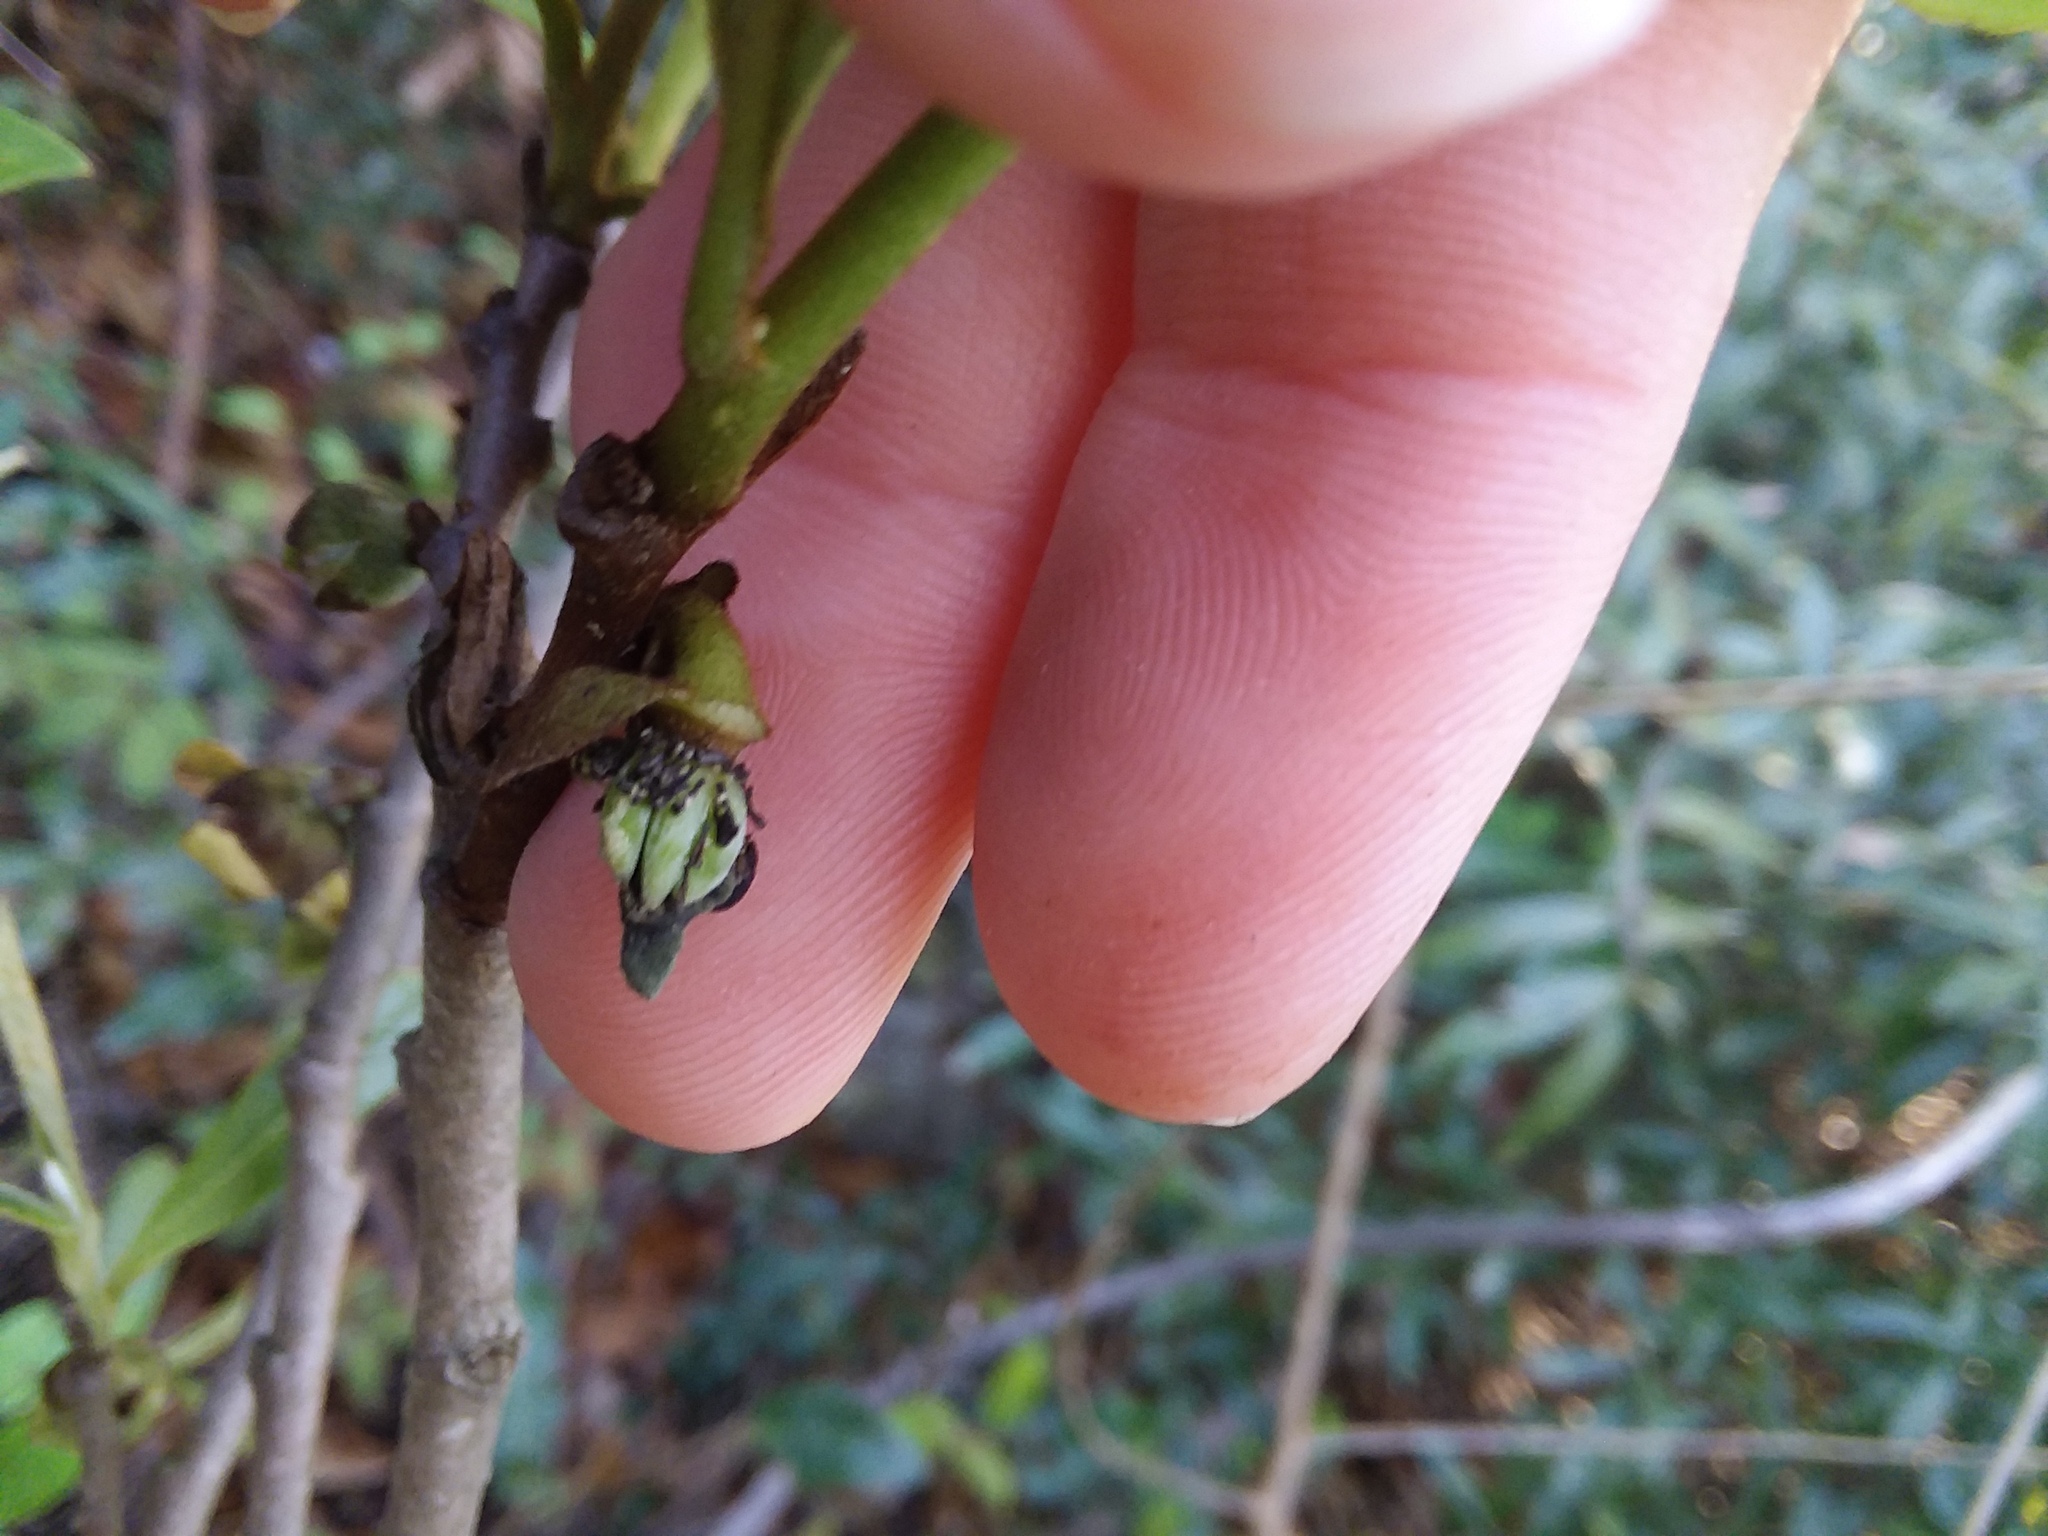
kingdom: Plantae
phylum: Tracheophyta
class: Magnoliopsida
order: Magnoliales
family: Annonaceae
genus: Asimina
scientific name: Asimina parviflora
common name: Dwarf pawpaw
